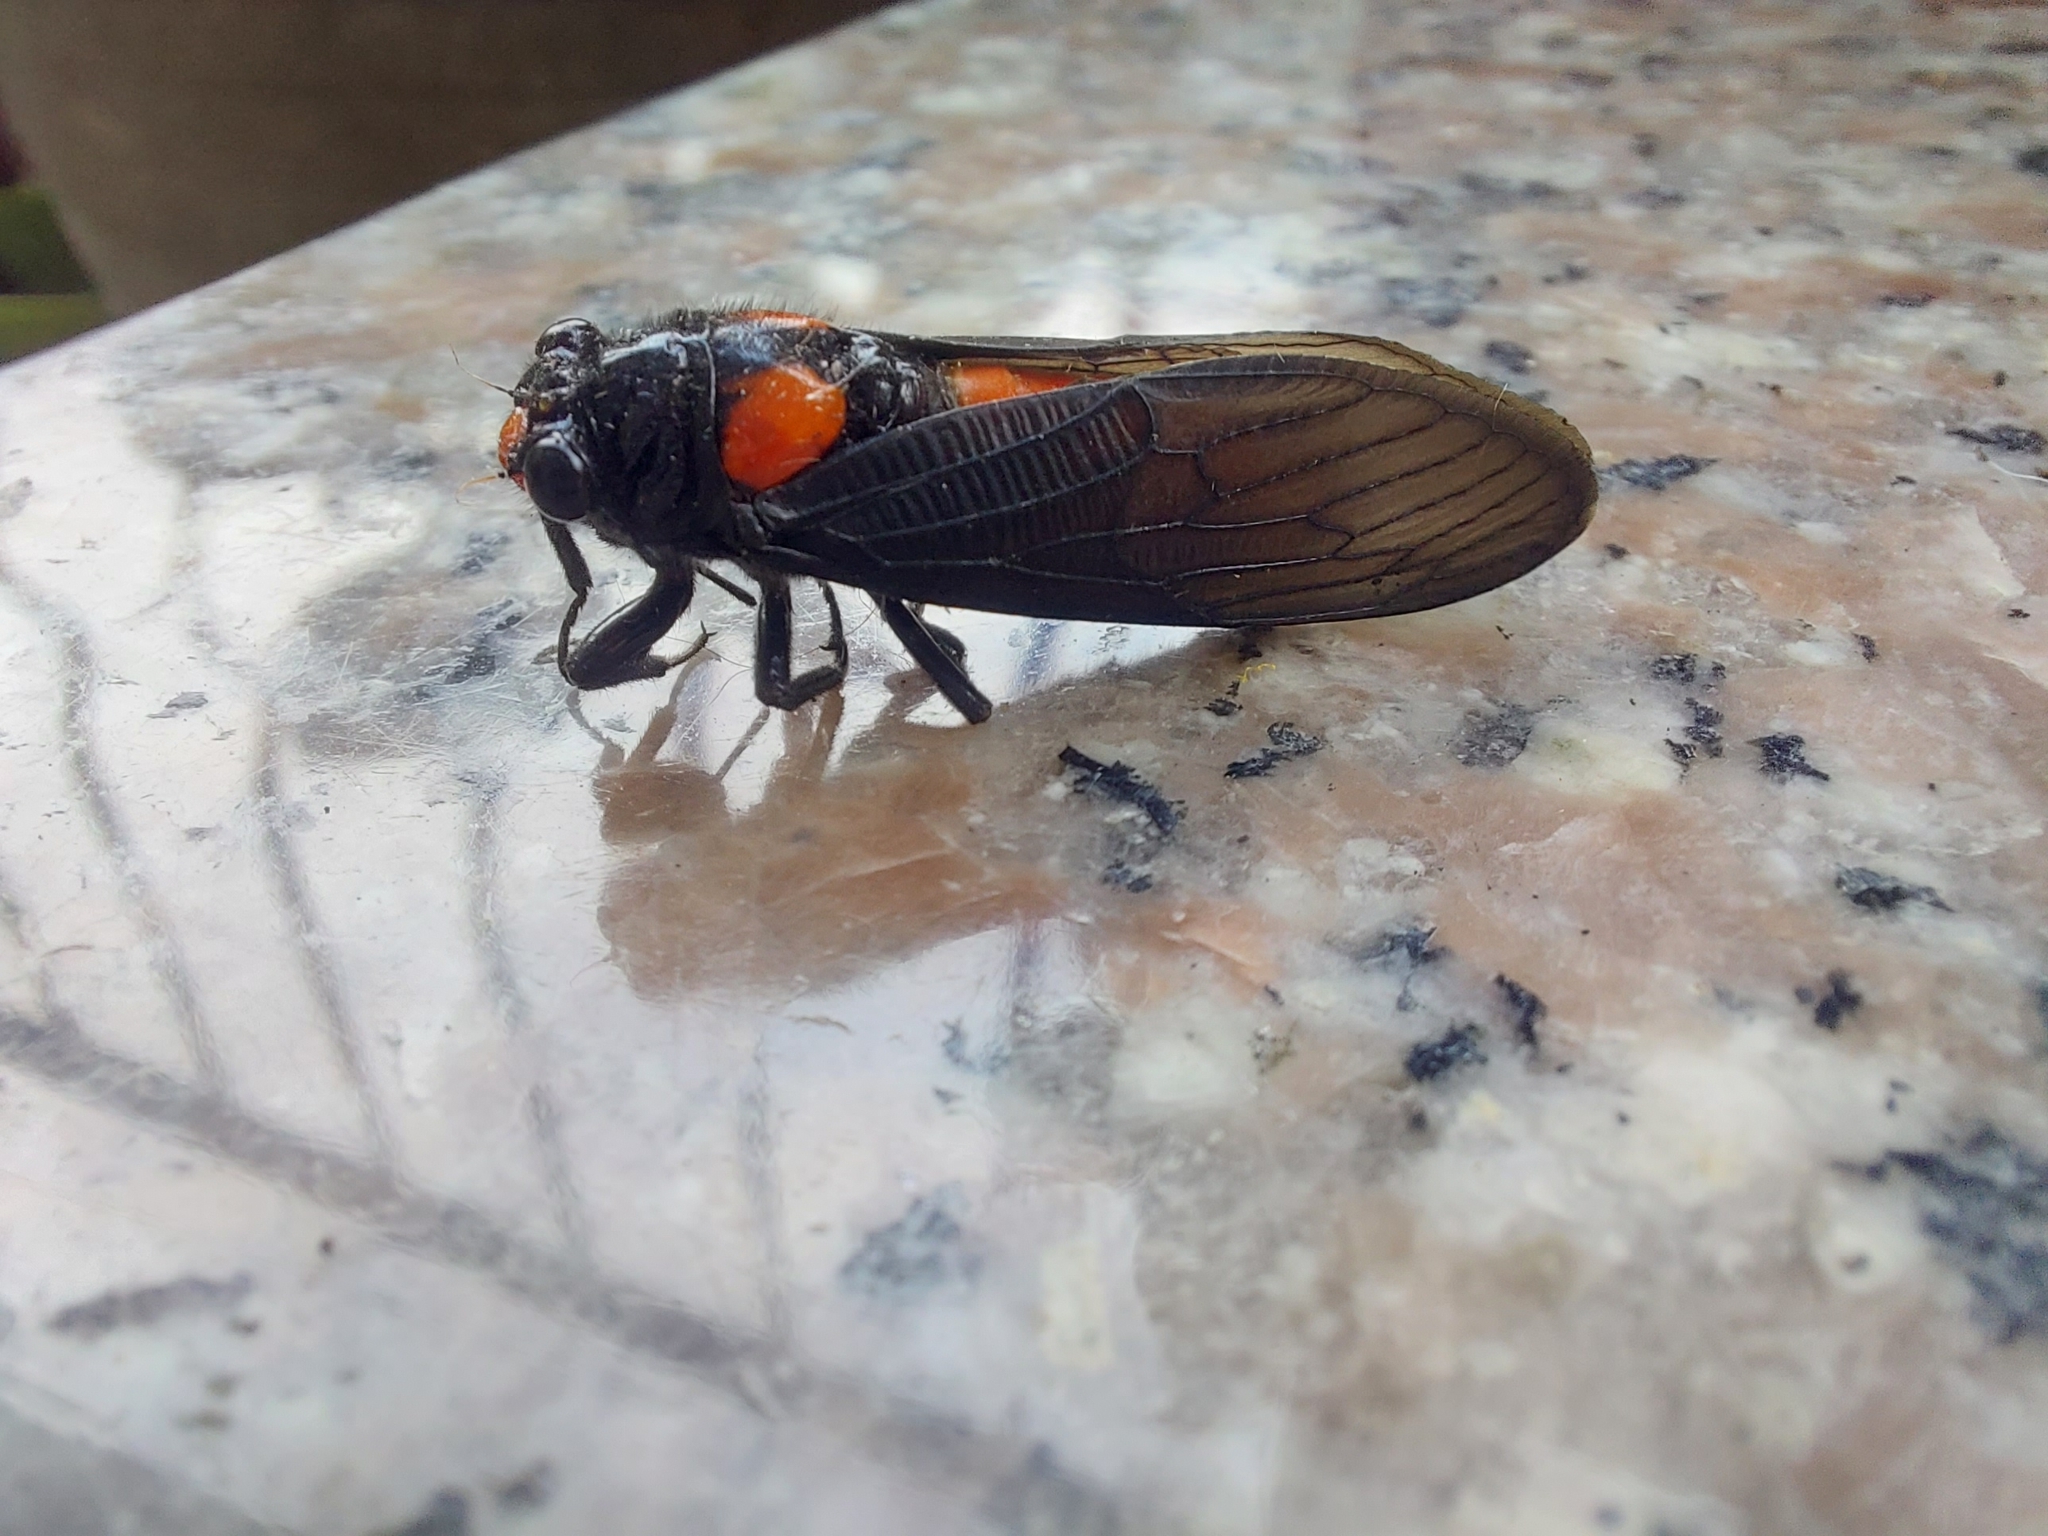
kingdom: Animalia
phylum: Arthropoda
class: Insecta
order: Hemiptera
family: Cicadidae
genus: Huechys
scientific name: Huechys sanguinea
